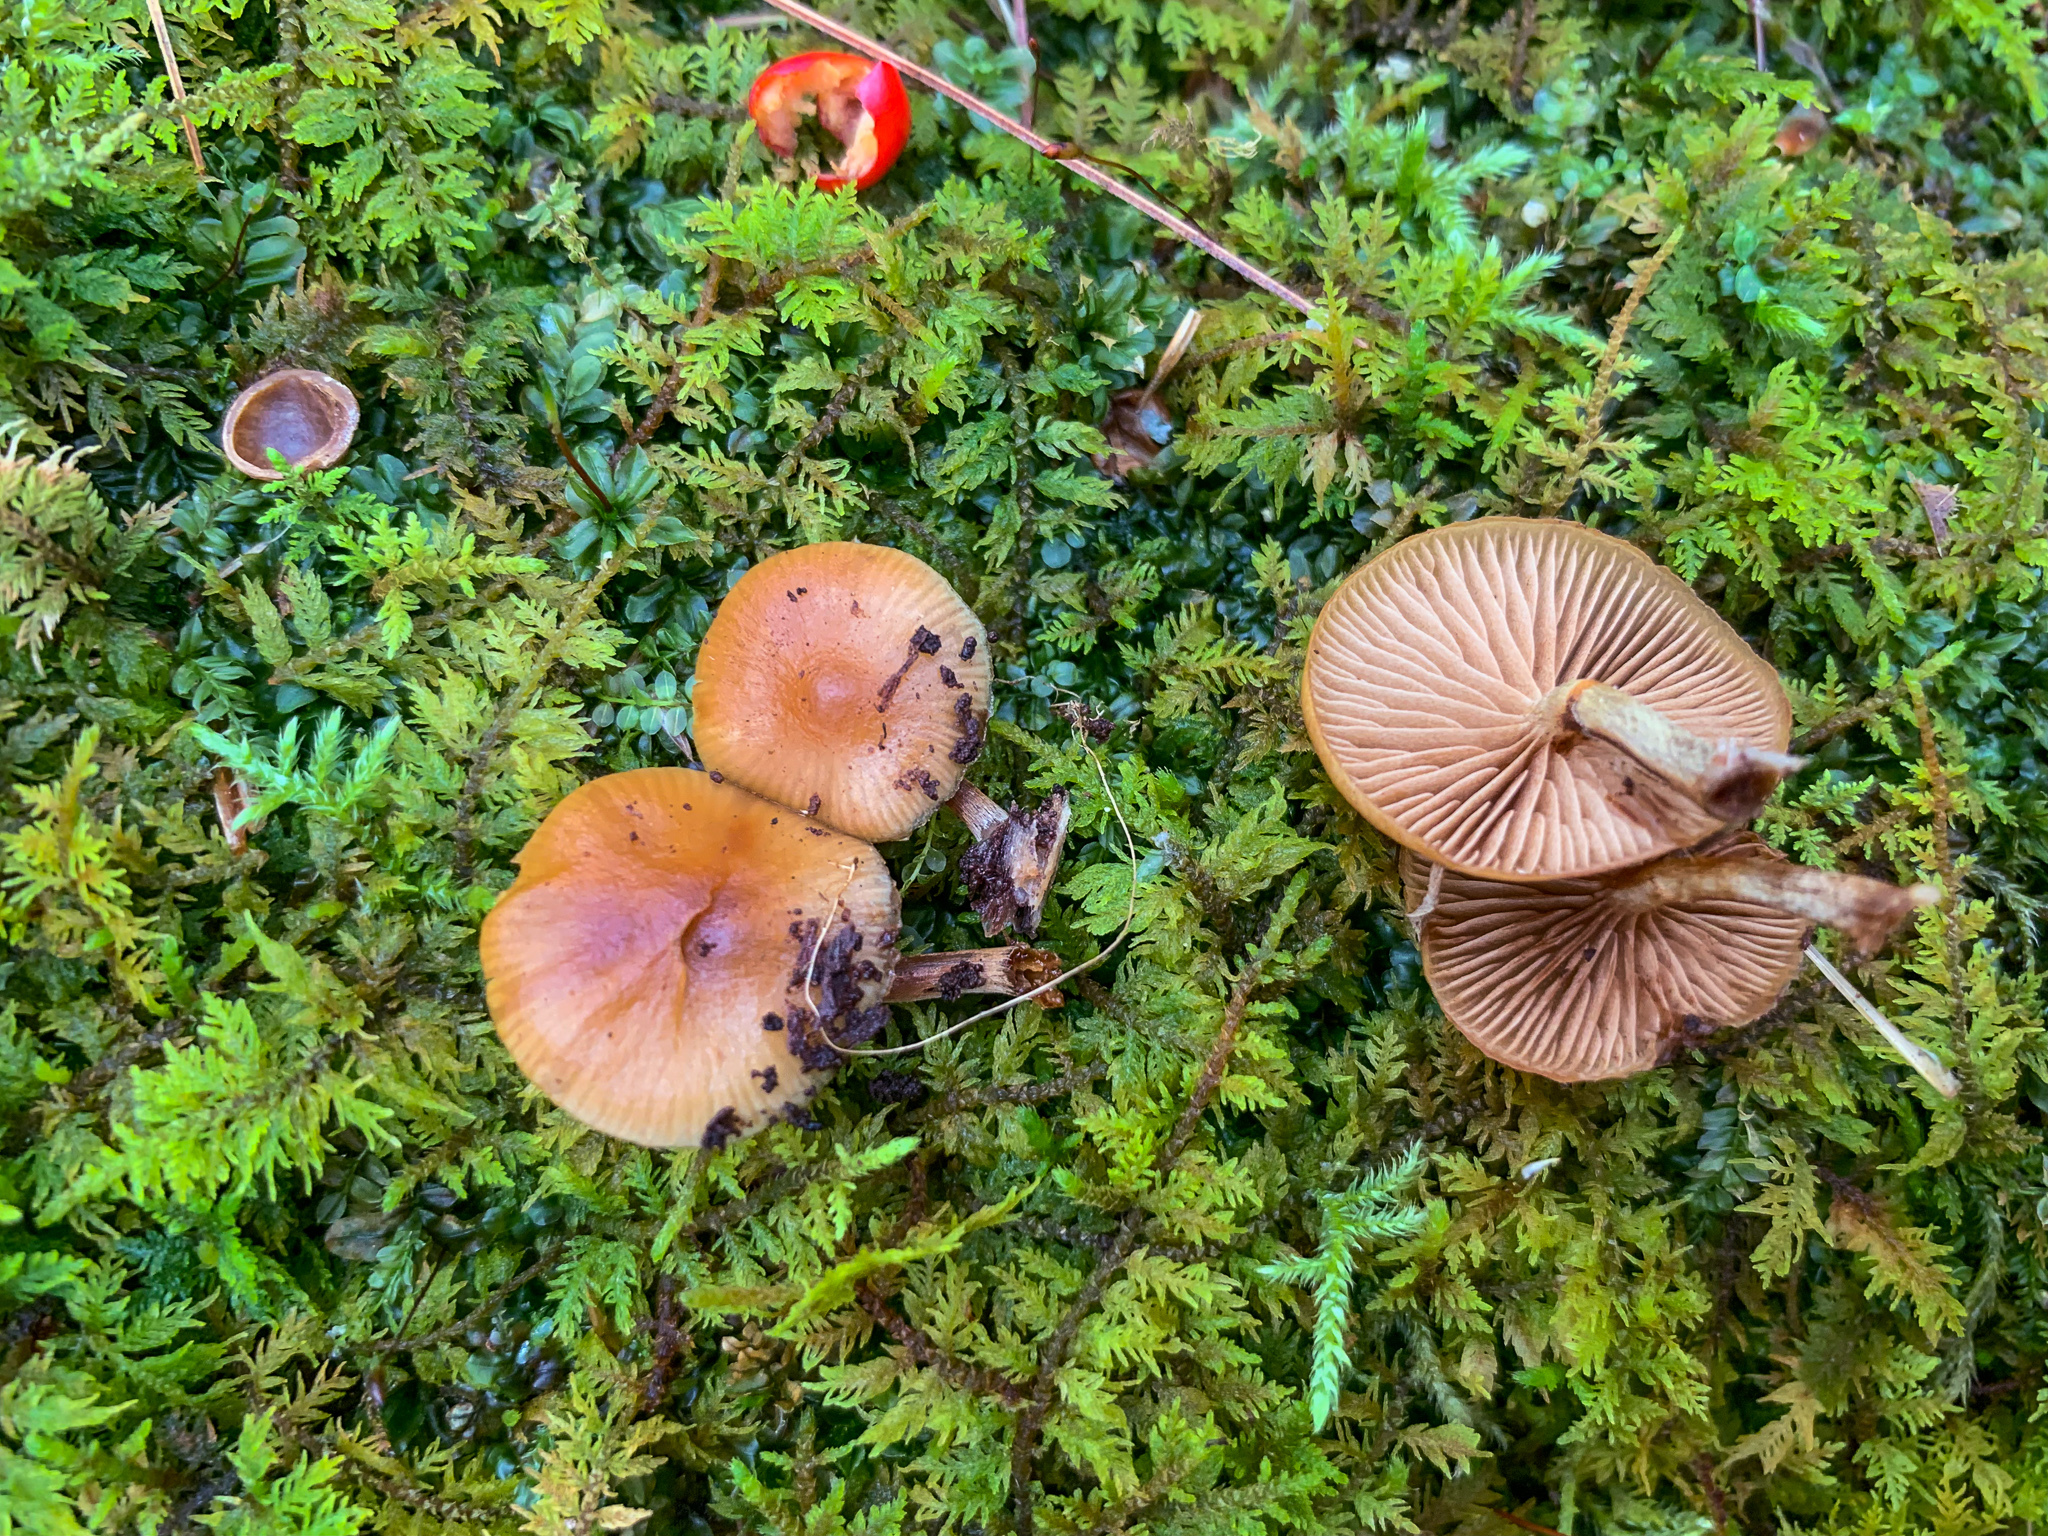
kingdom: Fungi
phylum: Basidiomycota
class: Agaricomycetes
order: Agaricales
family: Hymenogastraceae
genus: Galerina
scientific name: Galerina marginata
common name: Funeral bell
